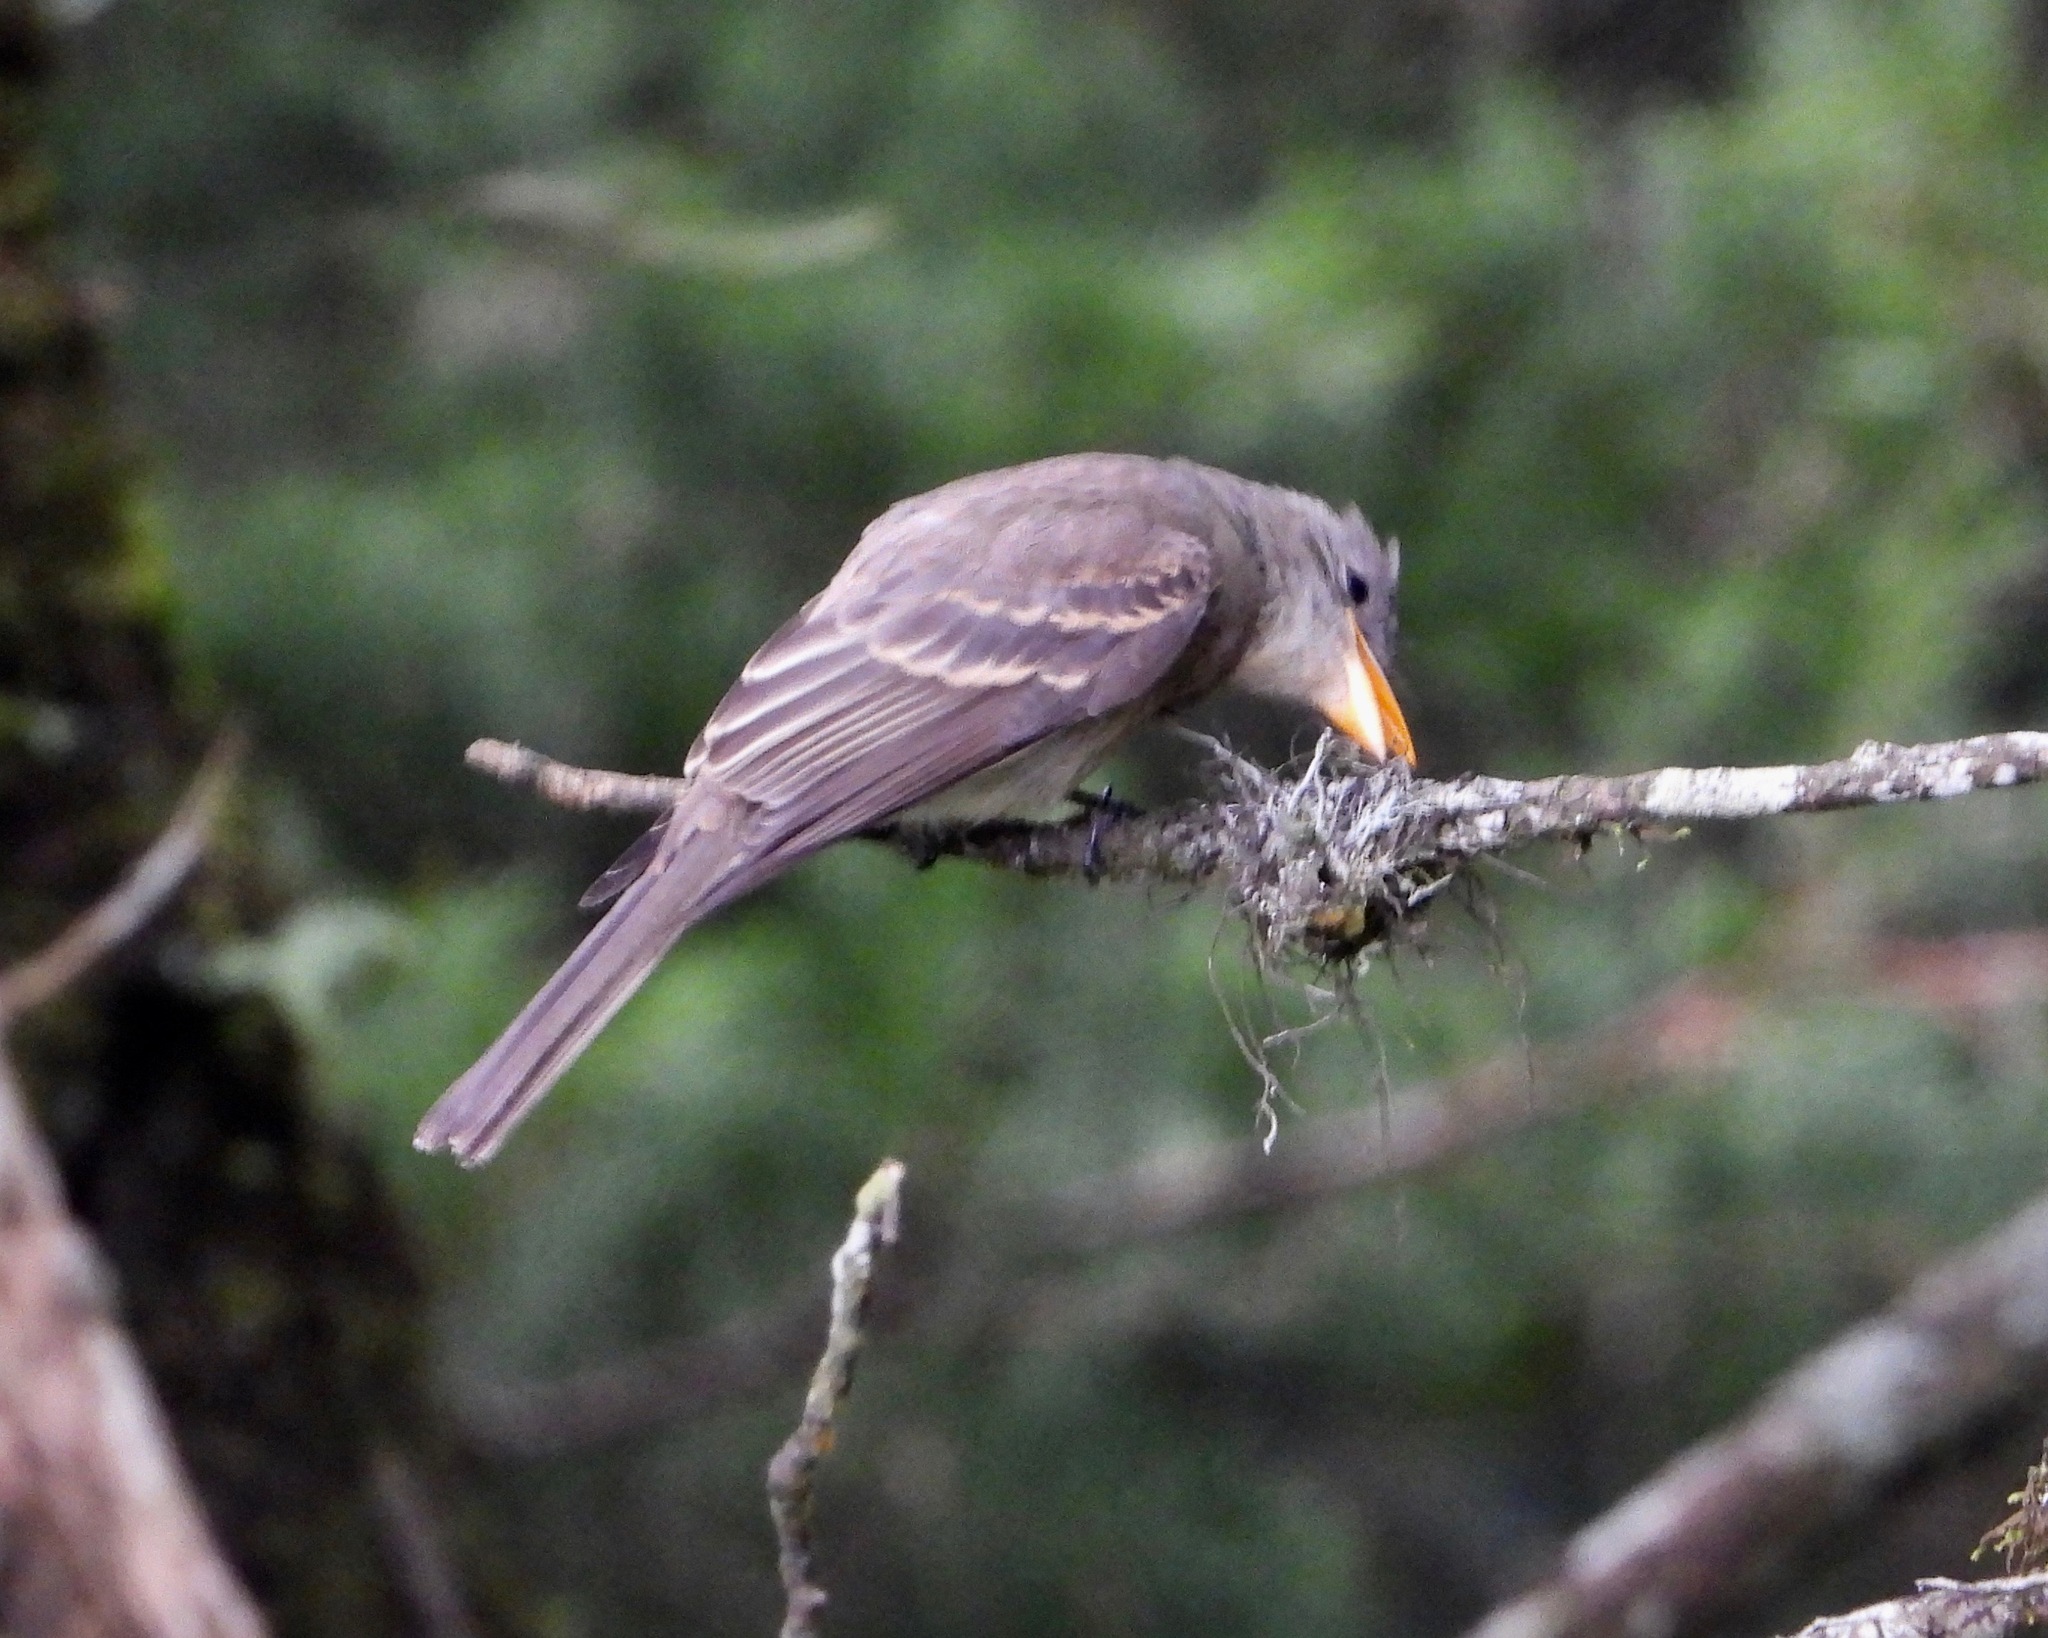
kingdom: Animalia
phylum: Chordata
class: Aves
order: Passeriformes
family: Tyrannidae
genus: Contopus
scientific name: Contopus pertinax
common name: Greater pewee
